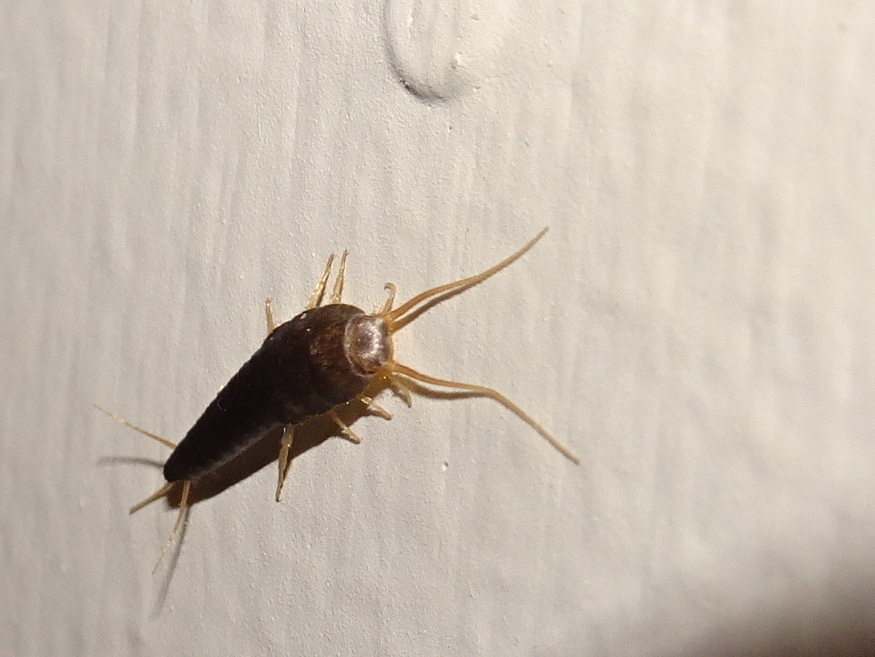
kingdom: Animalia
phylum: Arthropoda
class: Insecta
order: Zygentoma
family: Lepismatidae
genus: Lepisma
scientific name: Lepisma saccharinum
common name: Silverfish
